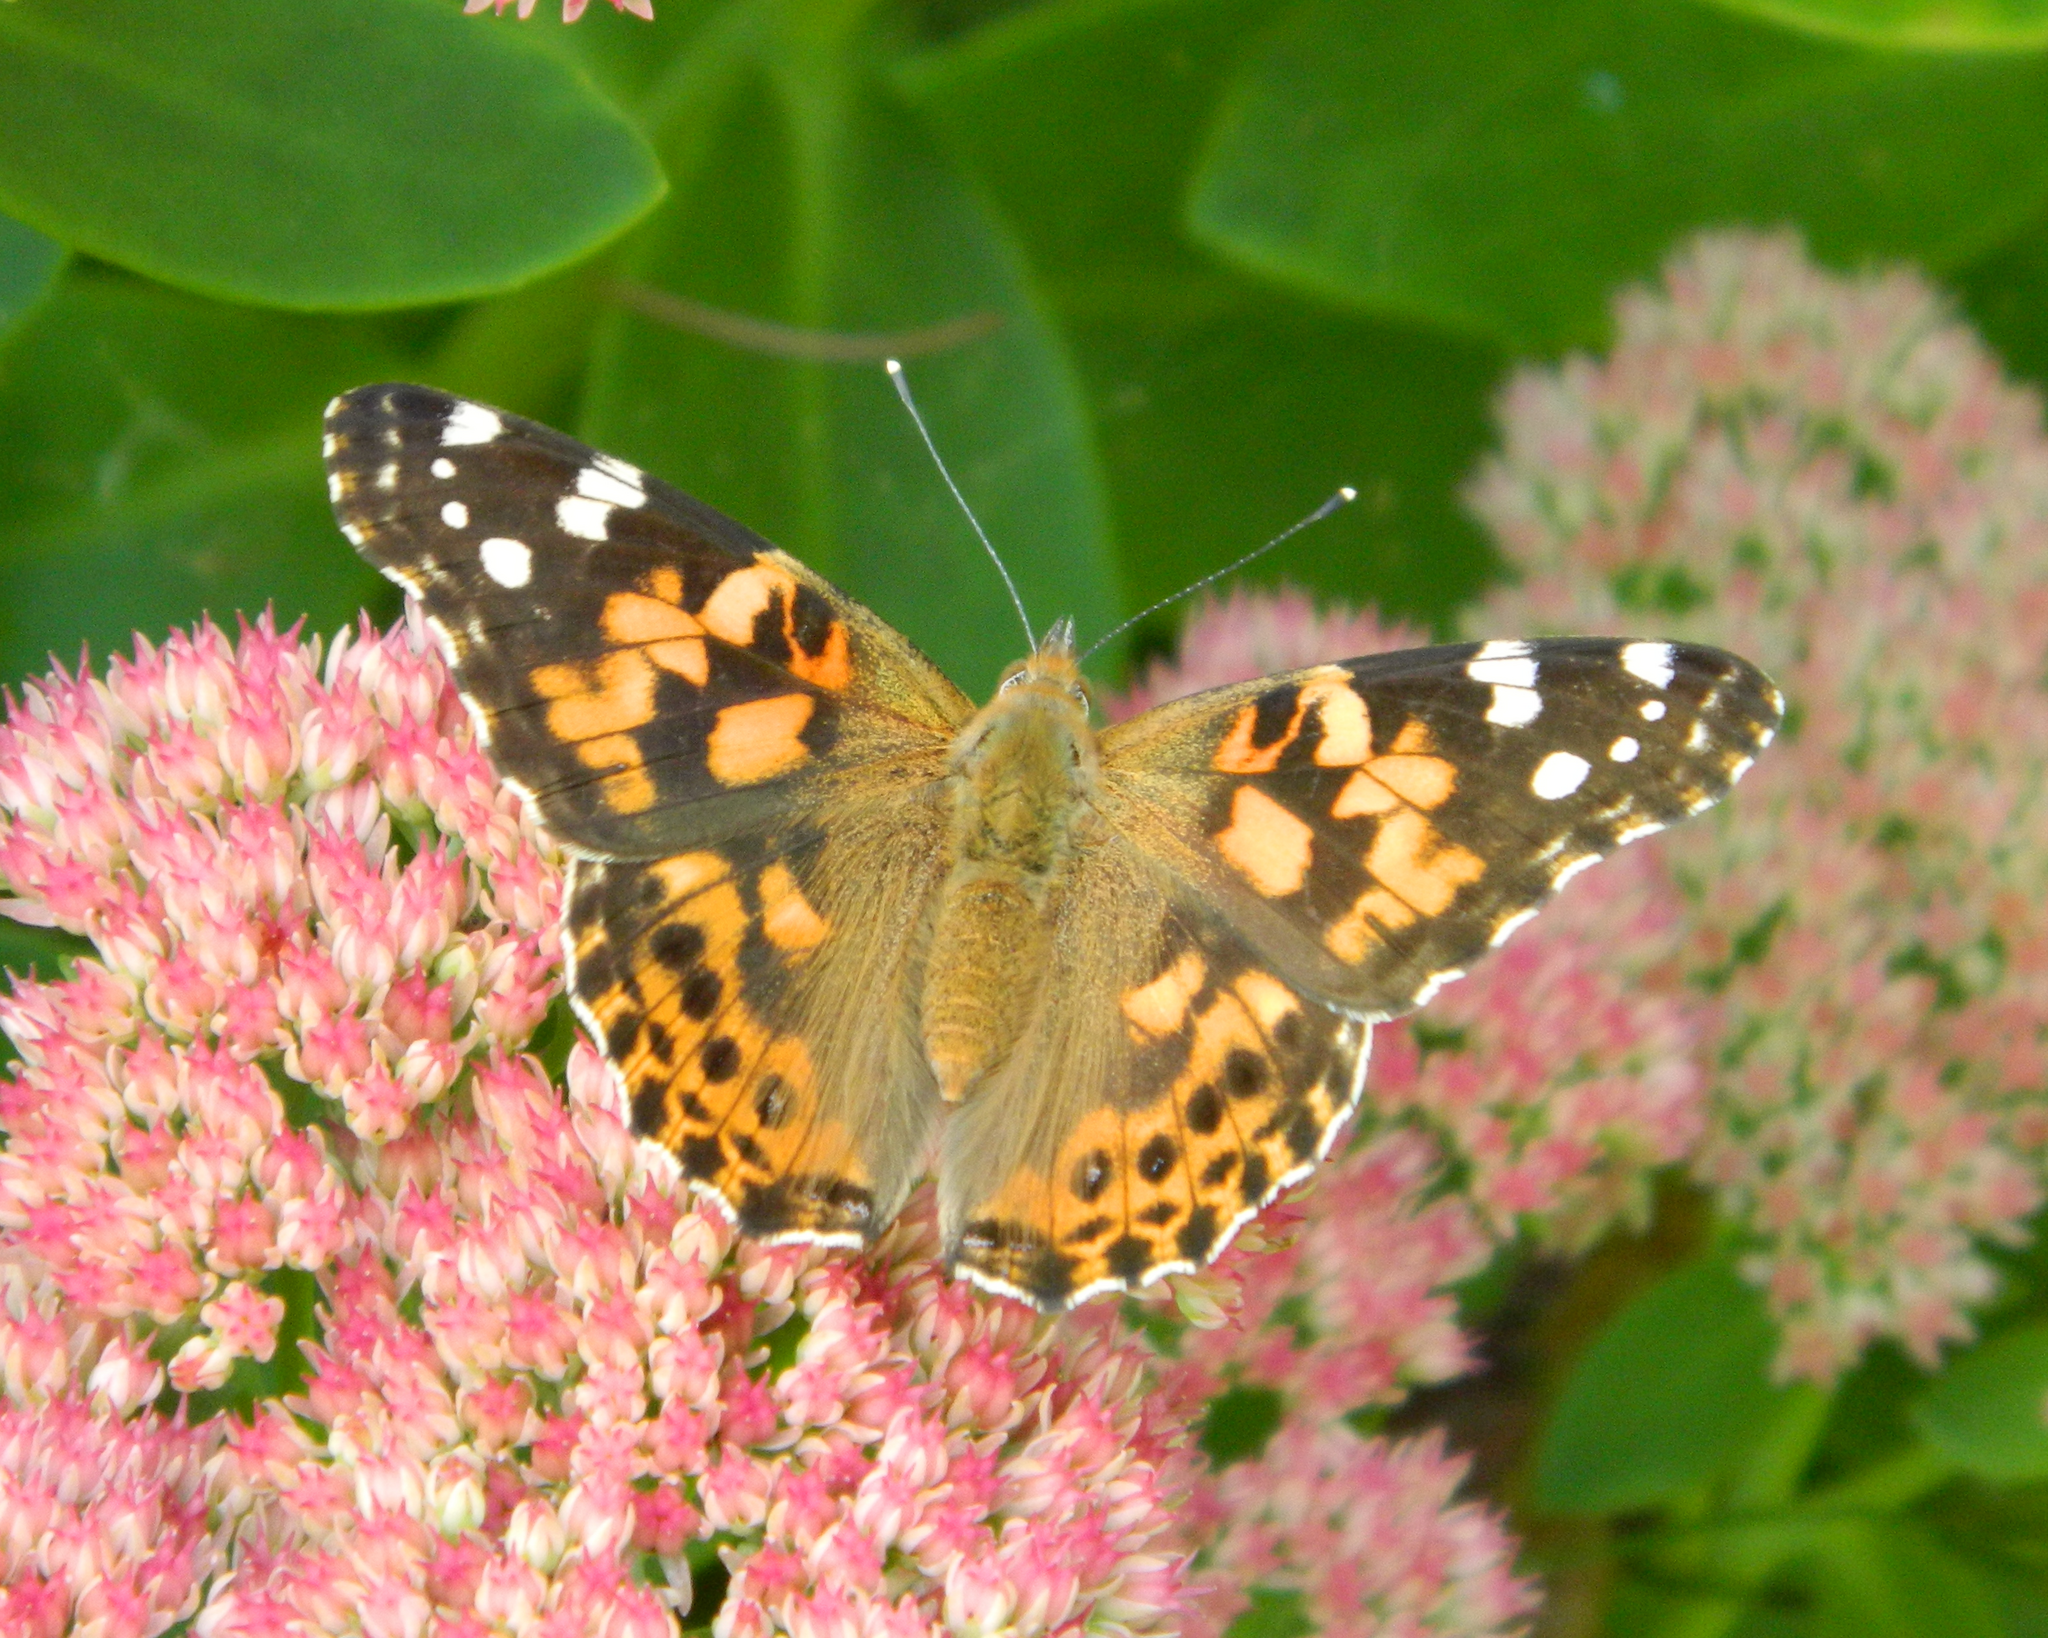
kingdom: Animalia
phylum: Arthropoda
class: Insecta
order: Lepidoptera
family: Nymphalidae
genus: Vanessa
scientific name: Vanessa cardui
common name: Painted lady
